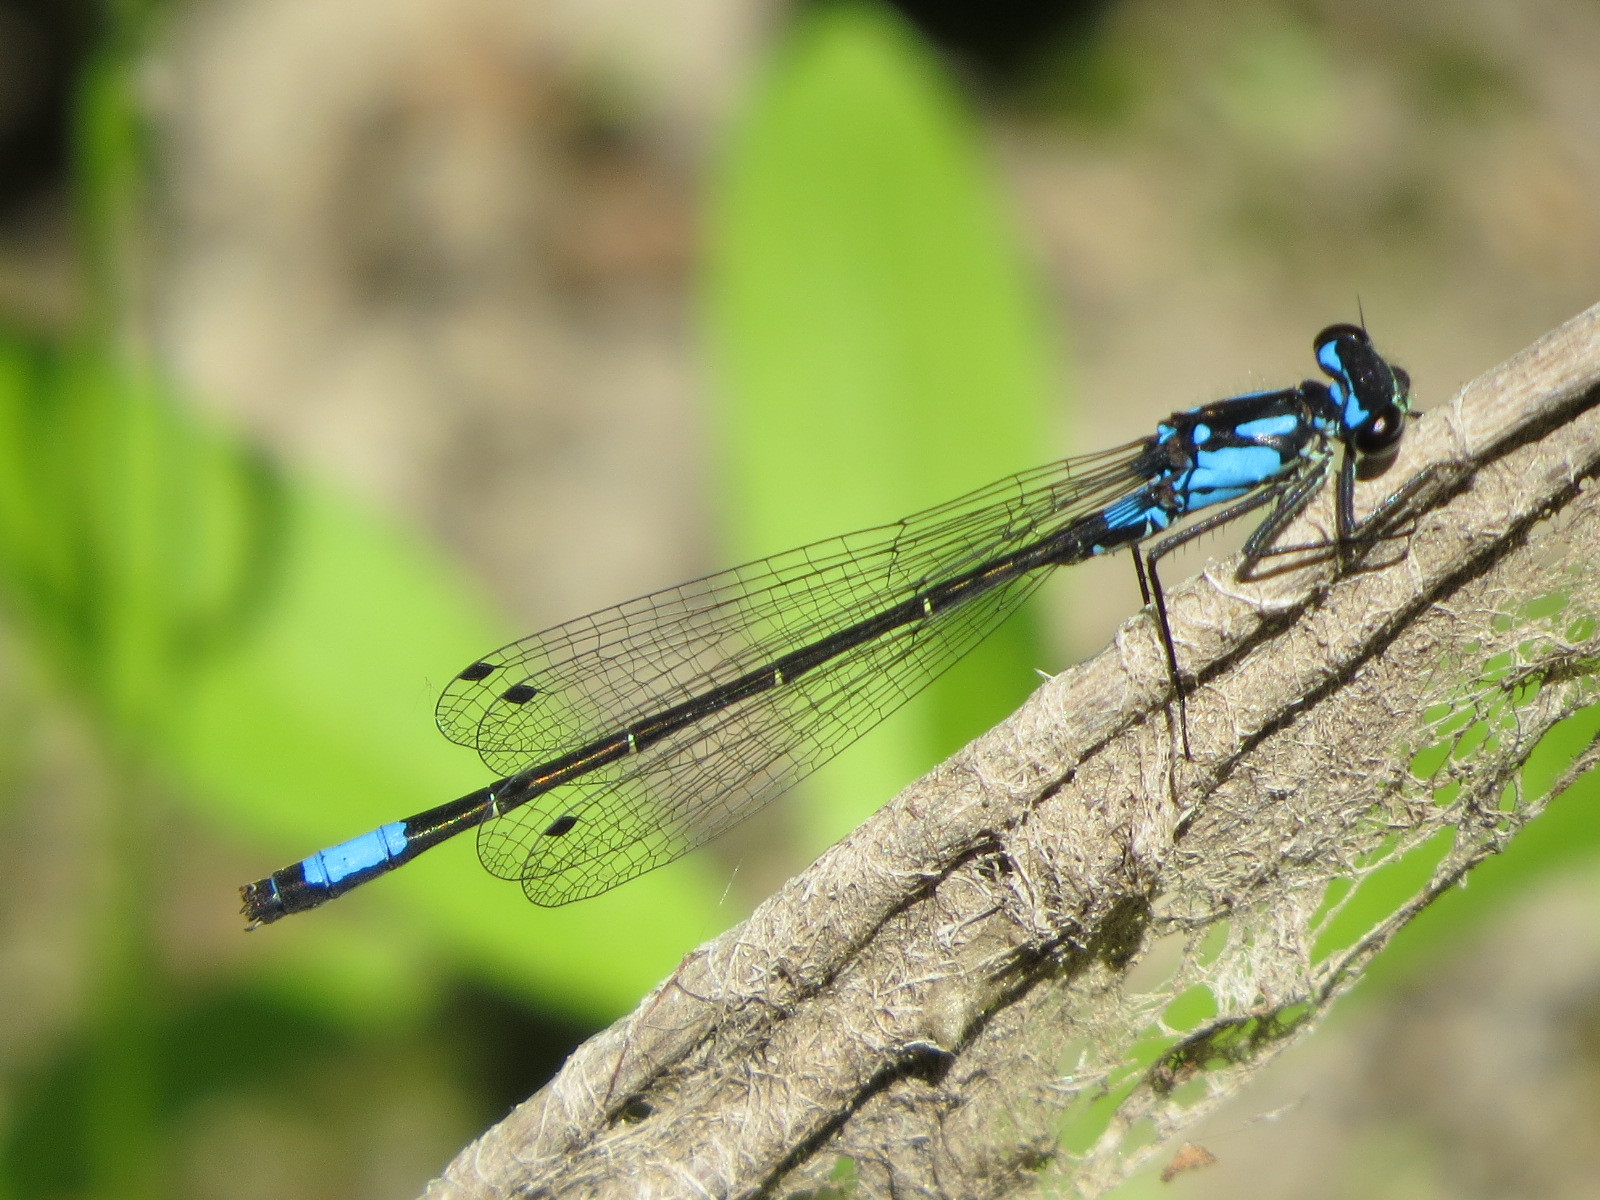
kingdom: Animalia
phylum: Arthropoda
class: Insecta
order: Odonata
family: Coenagrionidae
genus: Zoniagrion
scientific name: Zoniagrion exclamationis
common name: Exclamation damsel
